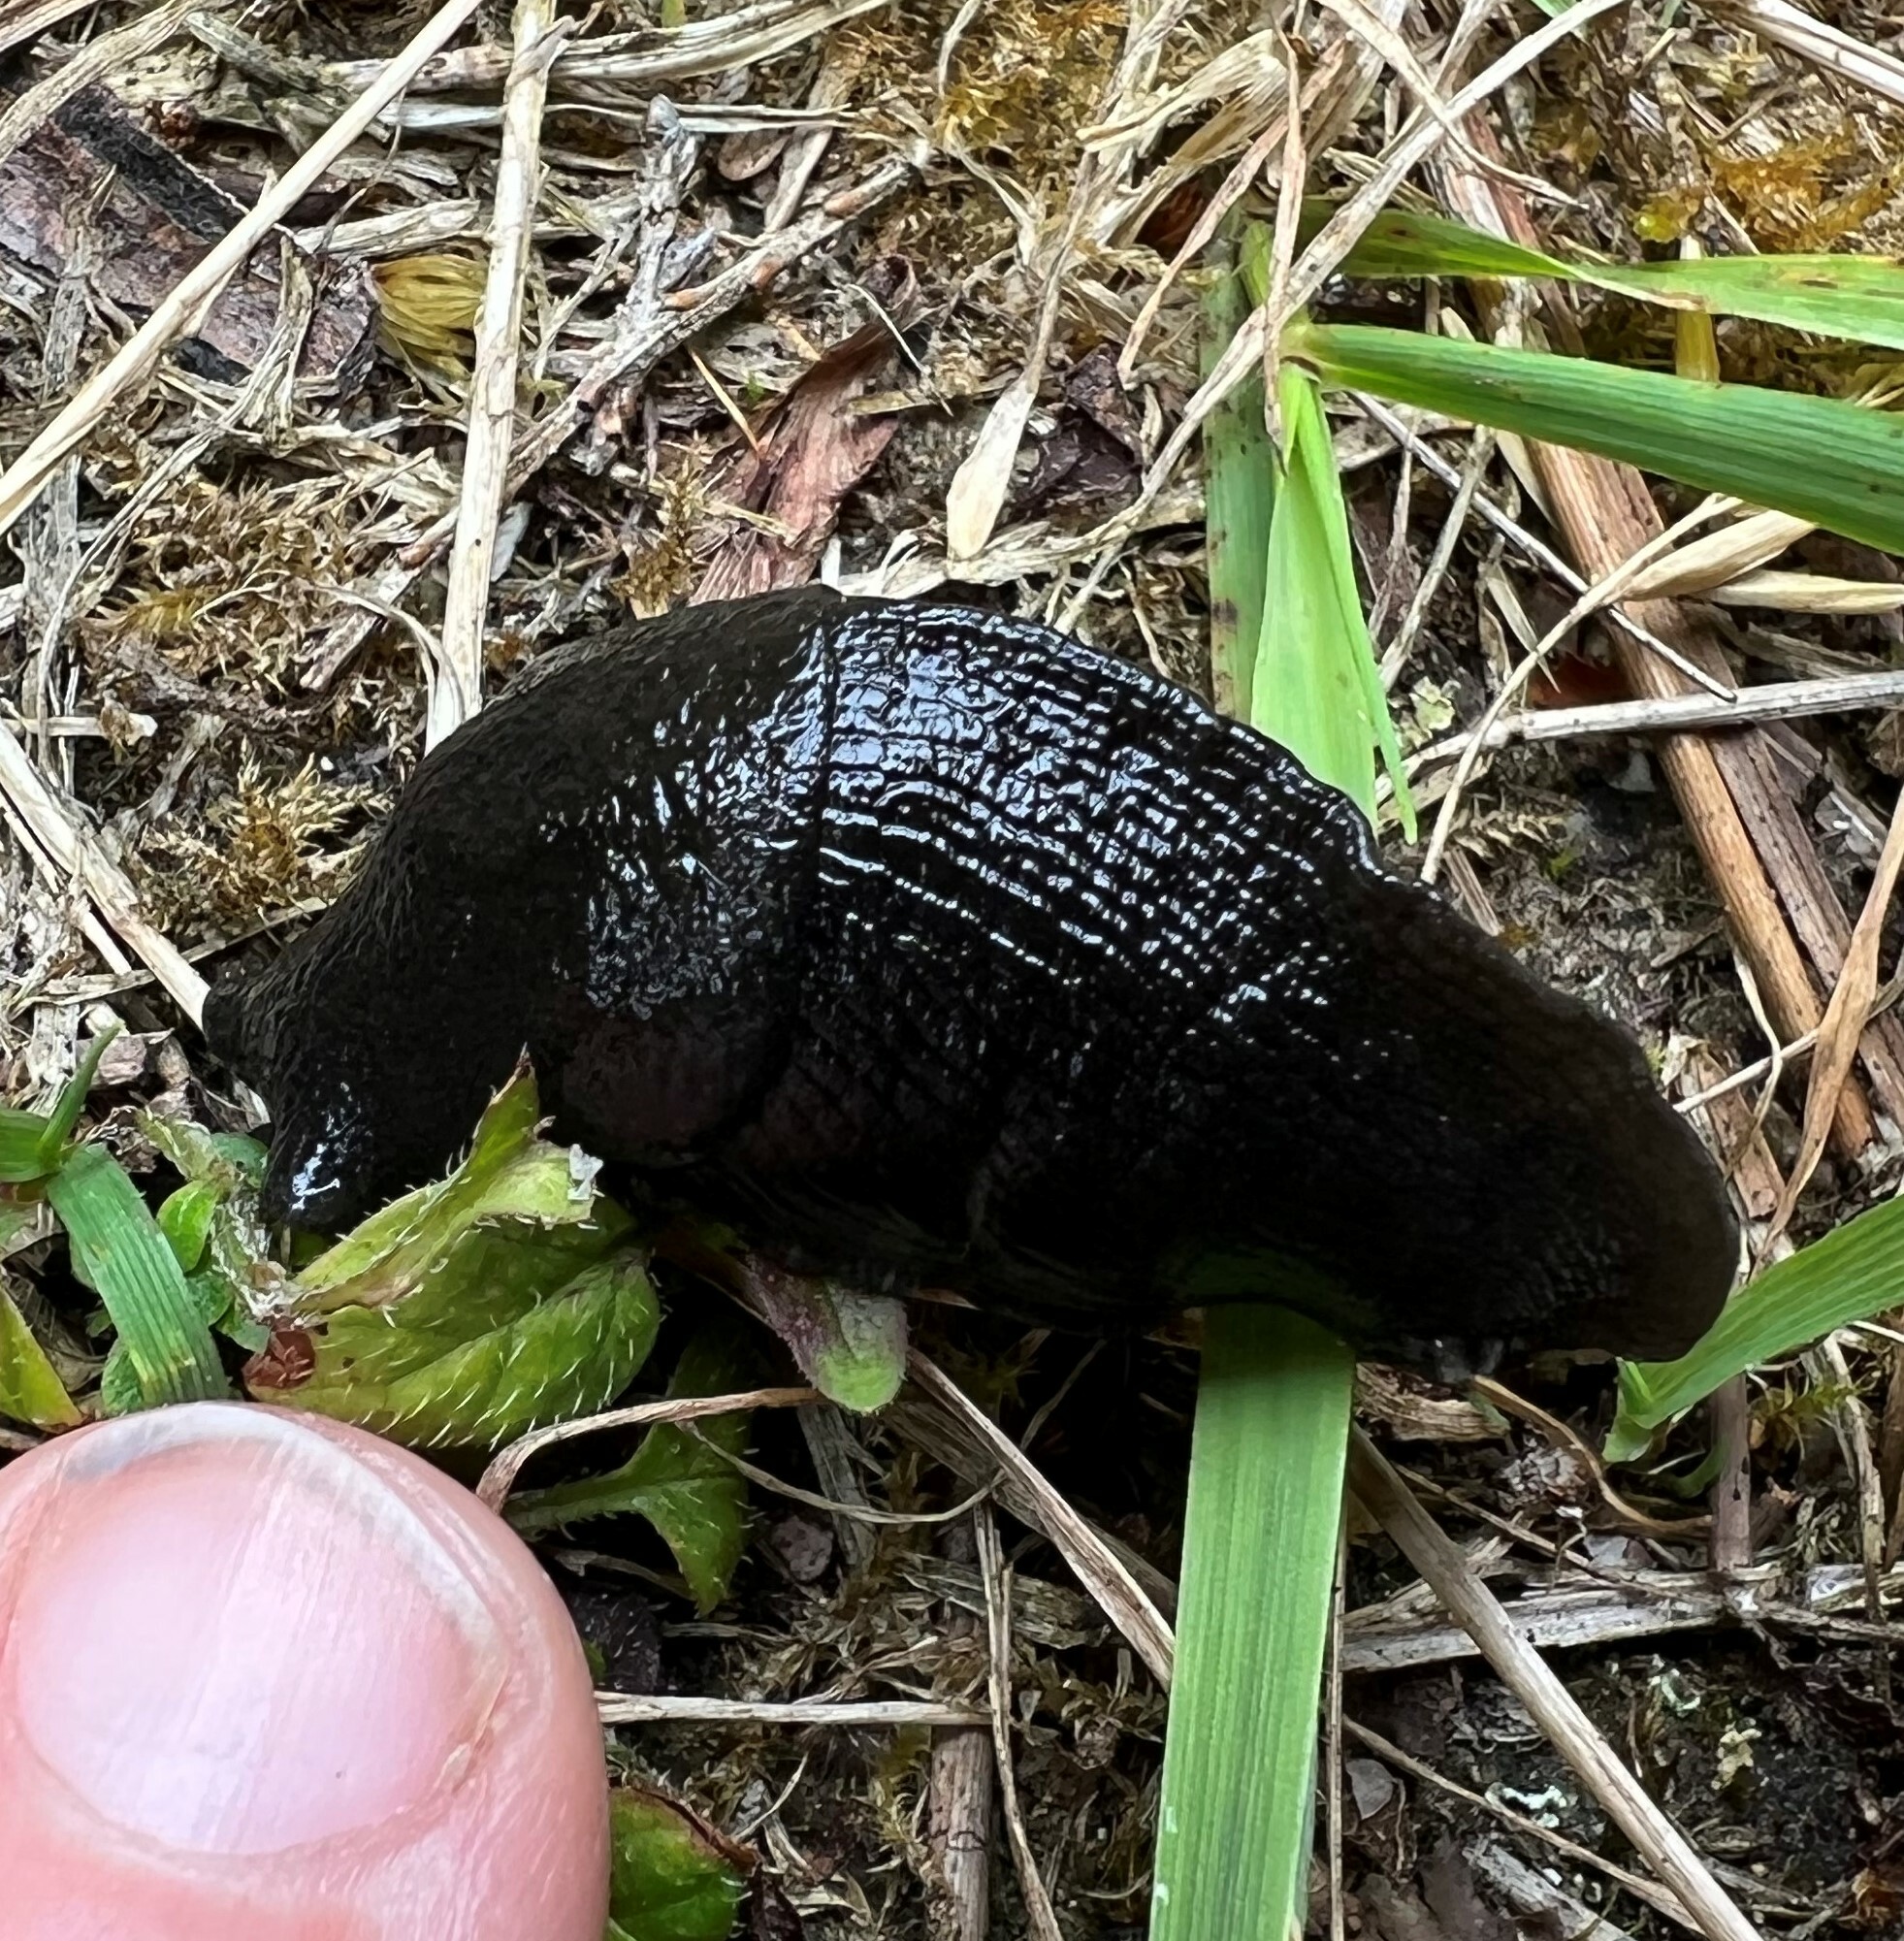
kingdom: Animalia
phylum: Mollusca
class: Gastropoda
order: Stylommatophora
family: Ariolimacidae
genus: Ariolimax
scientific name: Ariolimax columbianus
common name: Pacific banana slug
